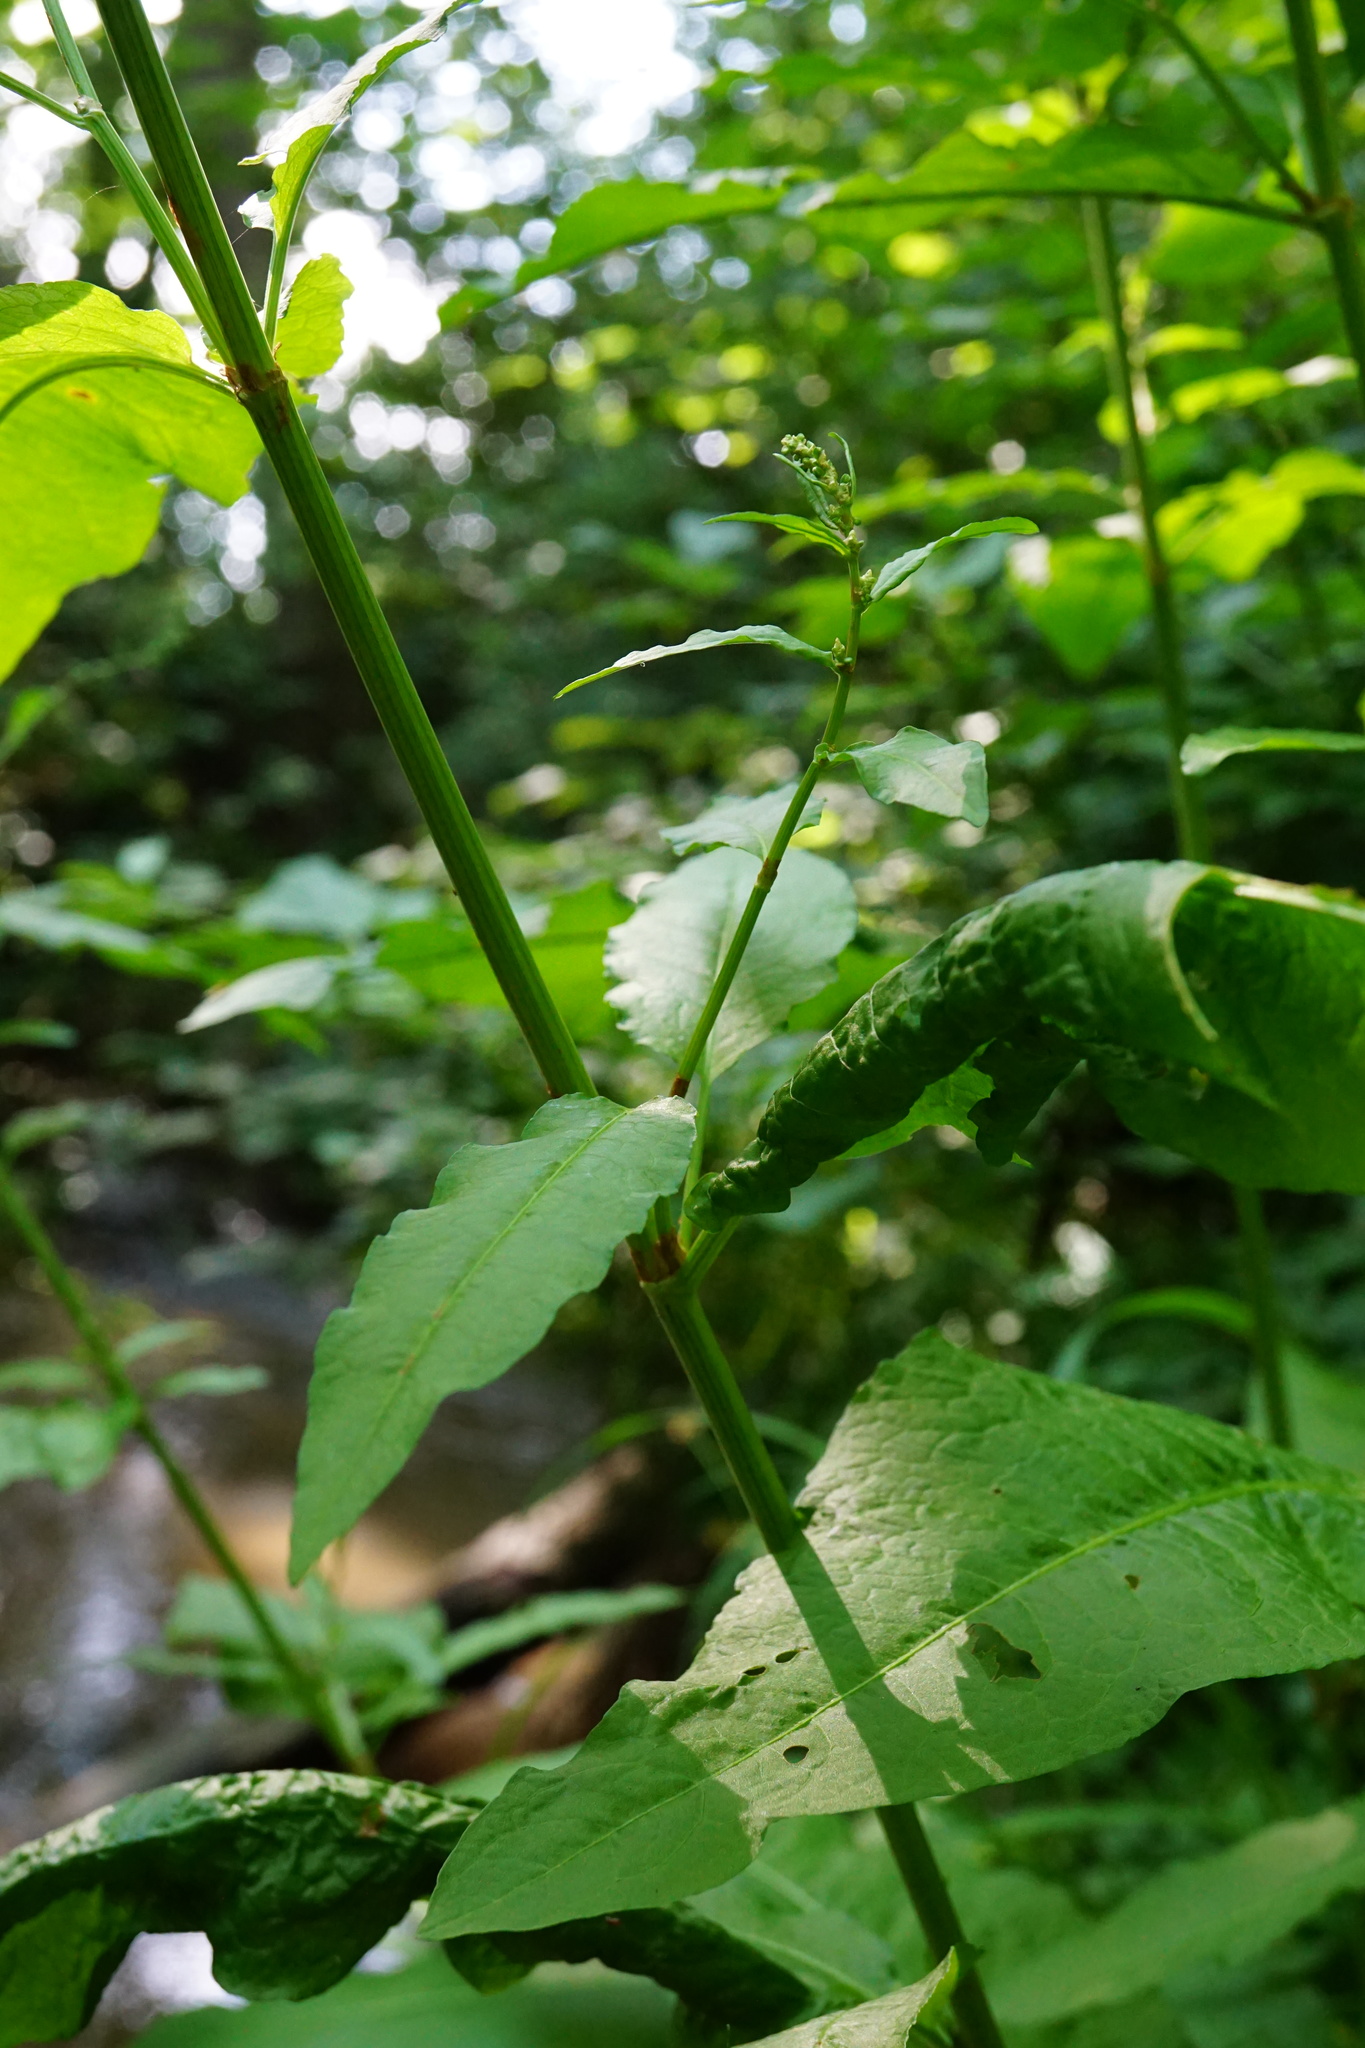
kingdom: Plantae
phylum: Tracheophyta
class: Magnoliopsida
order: Caryophyllales
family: Polygonaceae
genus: Rumex
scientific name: Rumex sanguineus
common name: Wood dock
